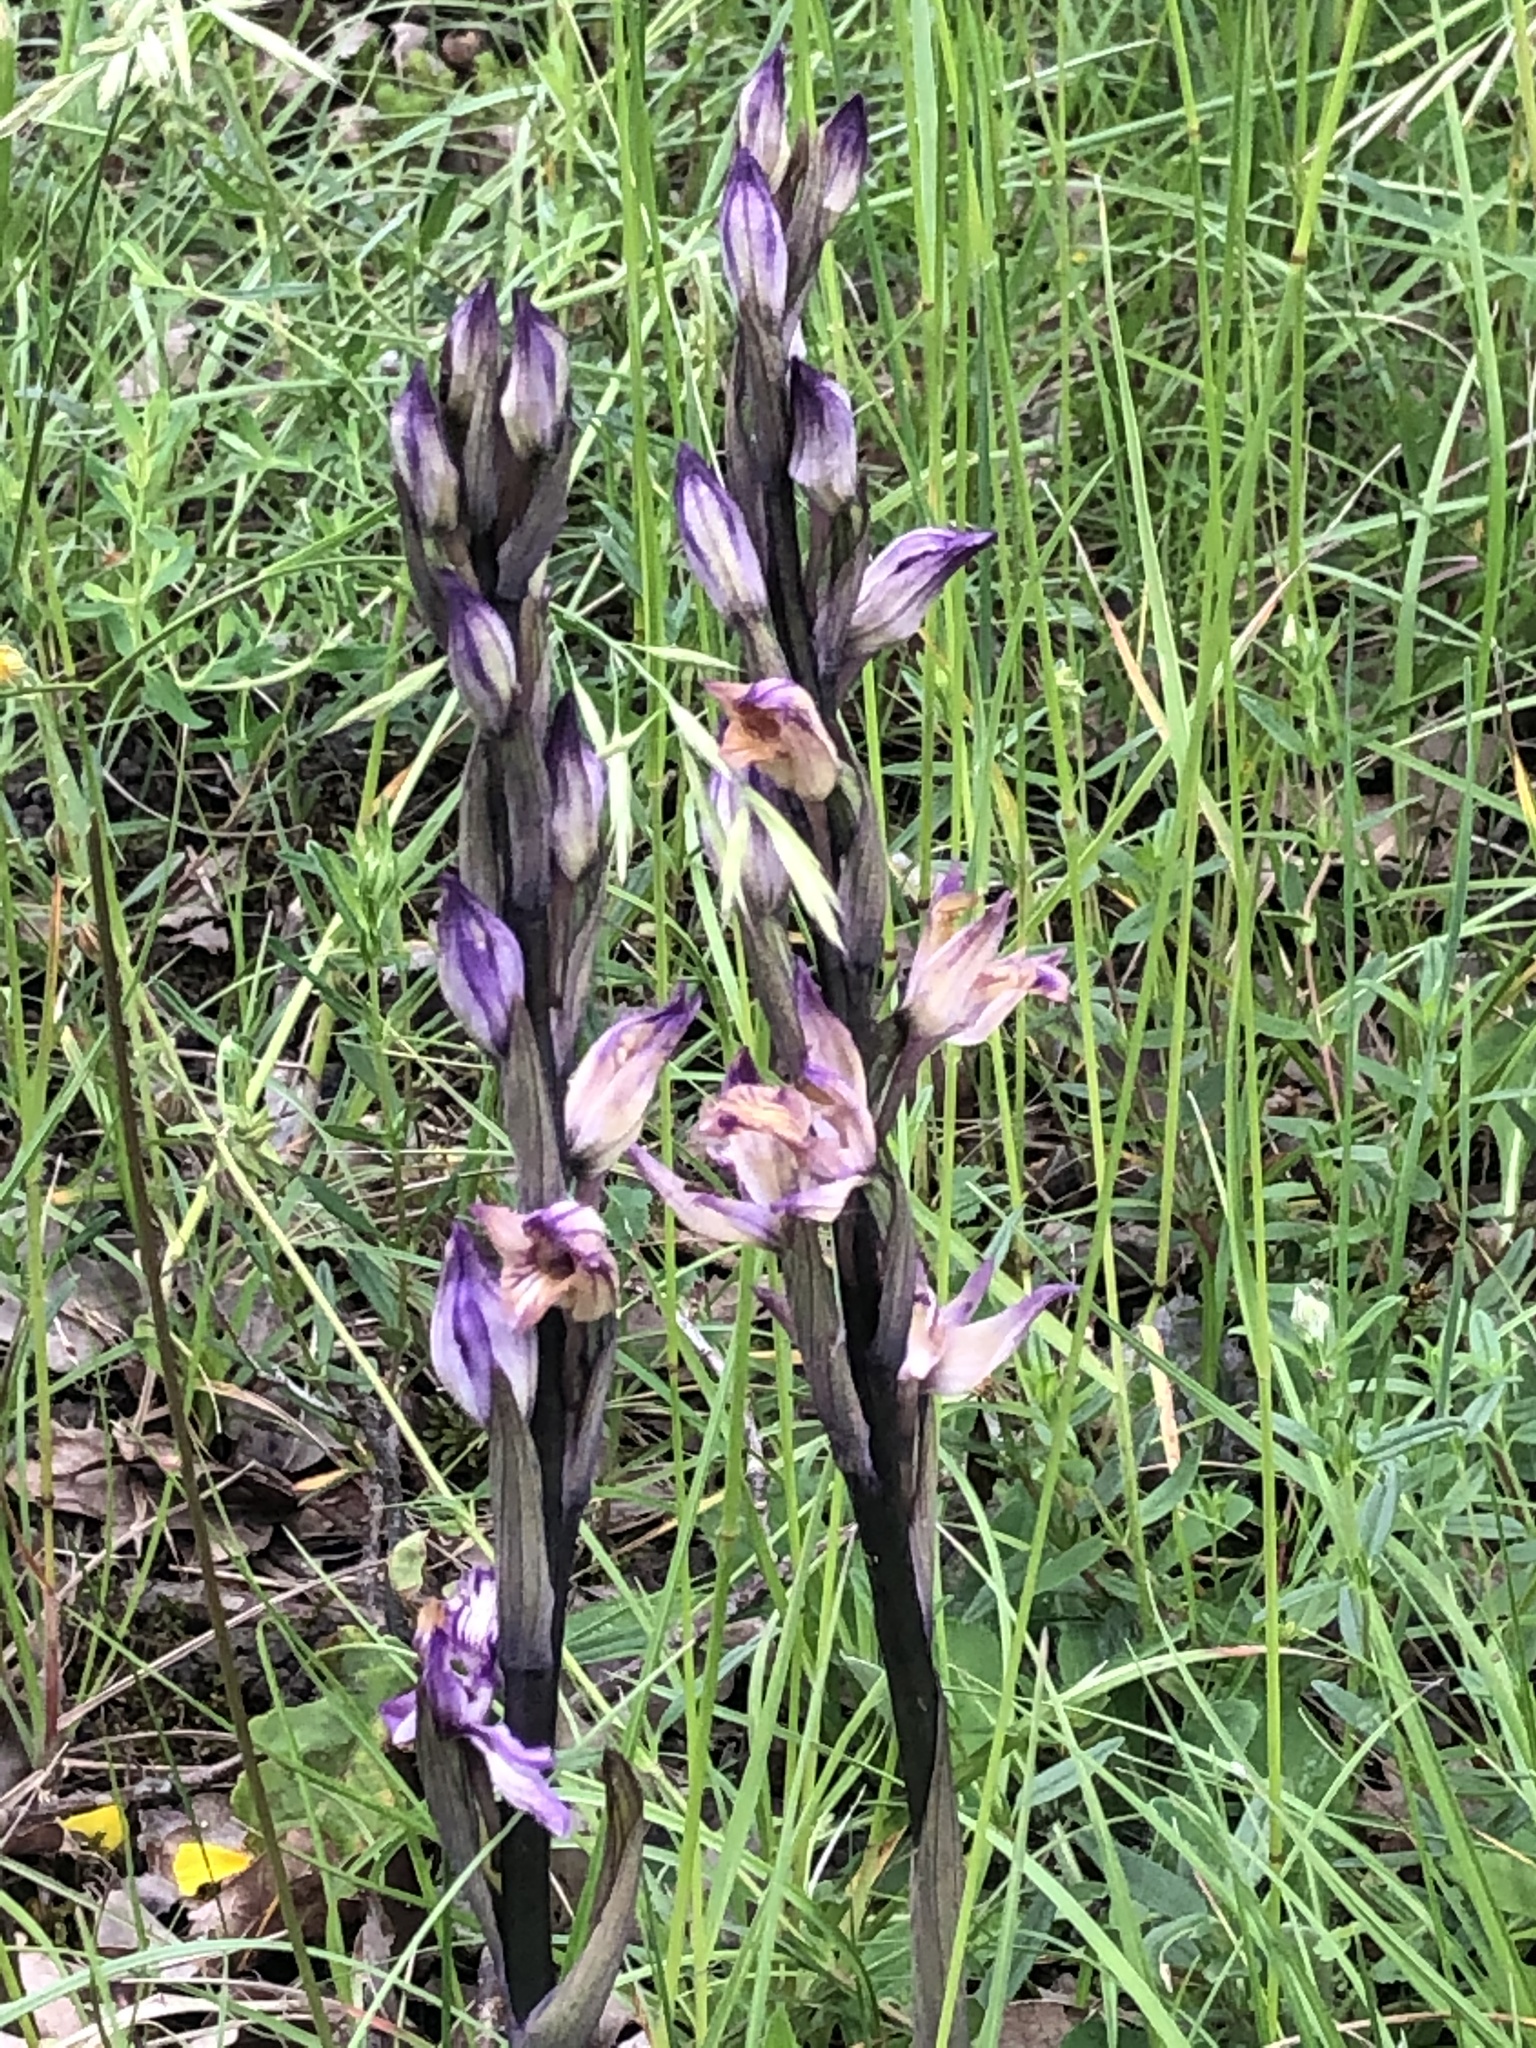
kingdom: Plantae
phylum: Tracheophyta
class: Liliopsida
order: Asparagales
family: Orchidaceae
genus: Limodorum
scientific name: Limodorum abortivum
